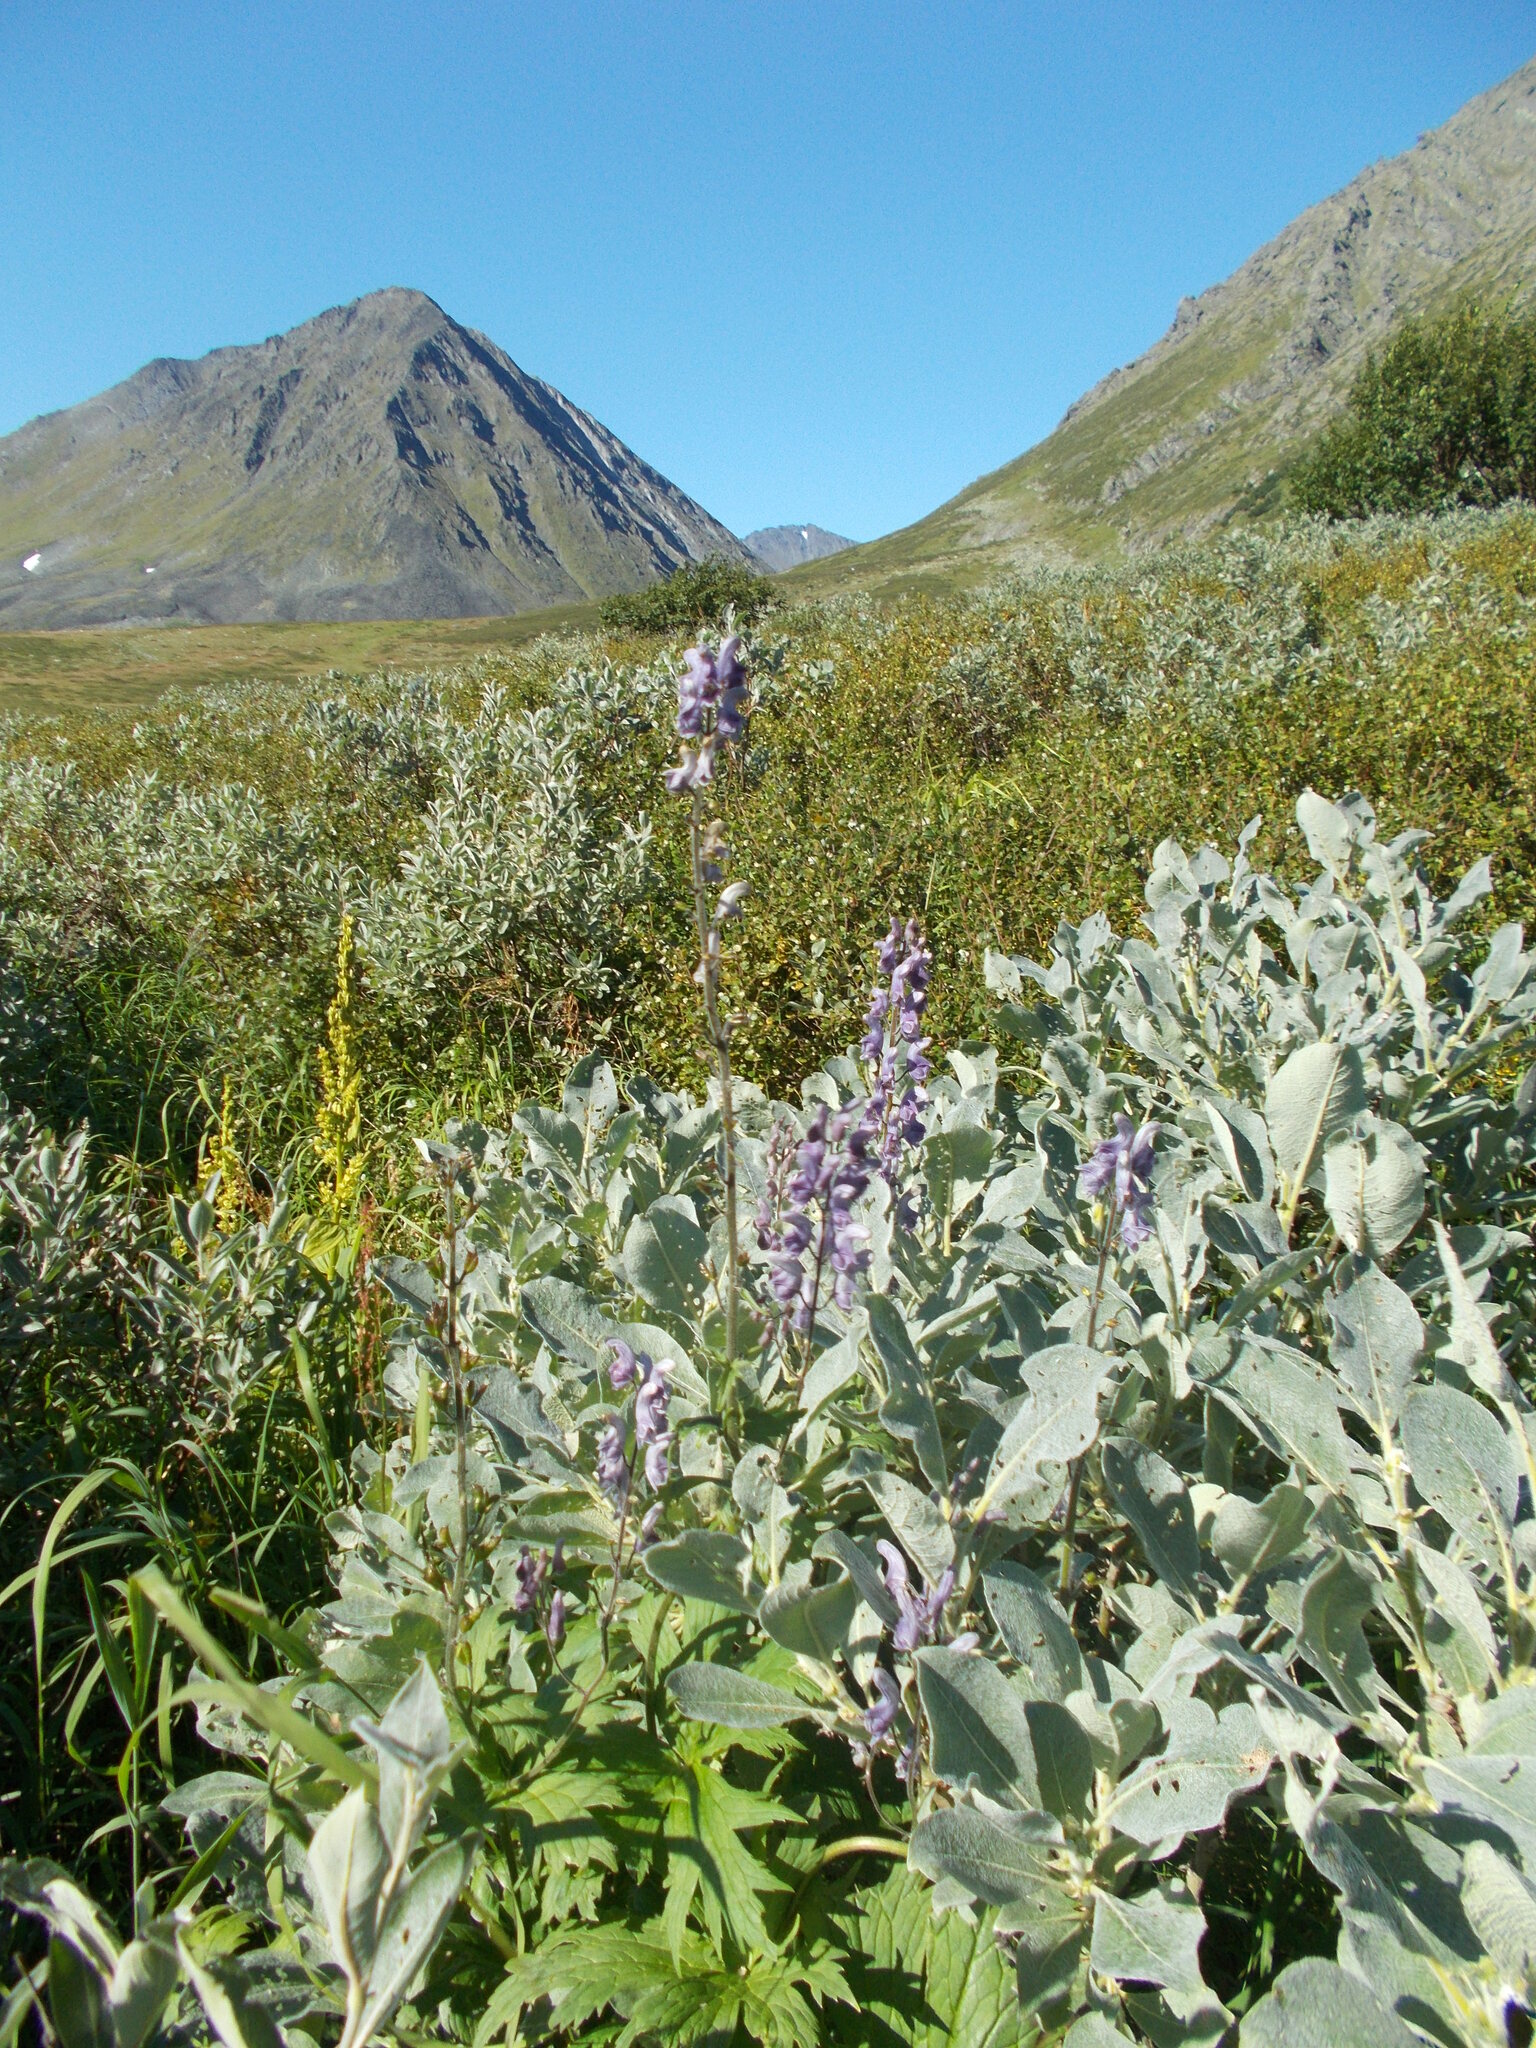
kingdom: Plantae
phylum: Tracheophyta
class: Magnoliopsida
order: Ranunculales
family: Ranunculaceae
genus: Aconitum
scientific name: Aconitum septentrionale
